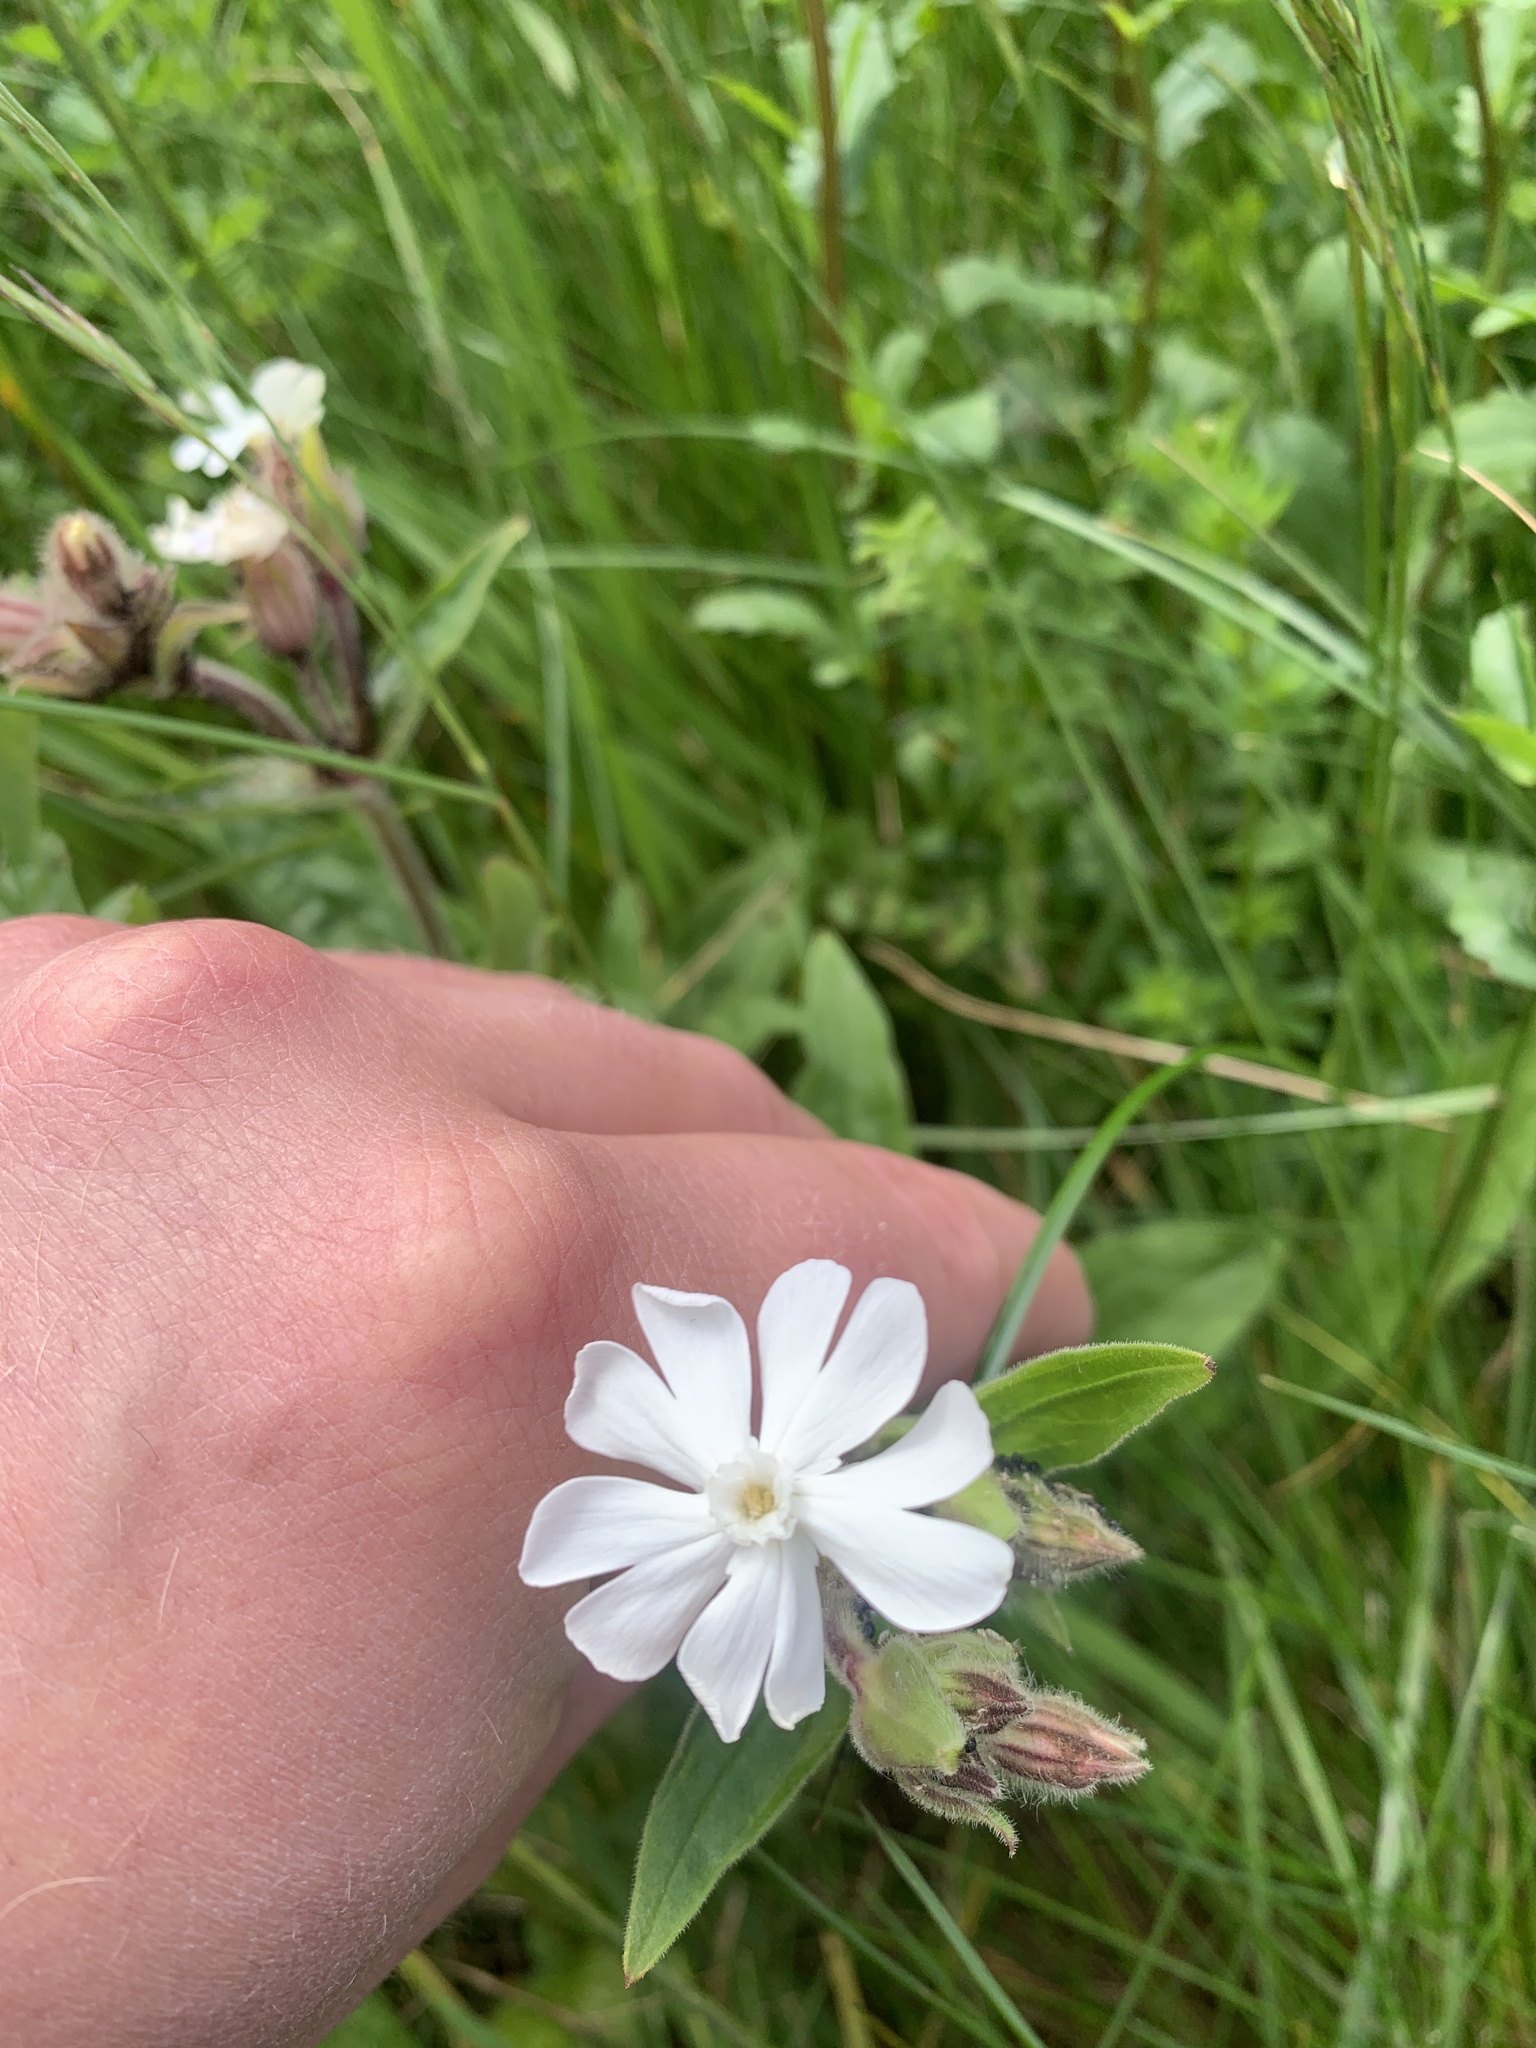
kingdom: Plantae
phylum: Tracheophyta
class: Magnoliopsida
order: Caryophyllales
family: Caryophyllaceae
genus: Silene
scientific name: Silene latifolia
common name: White campion
